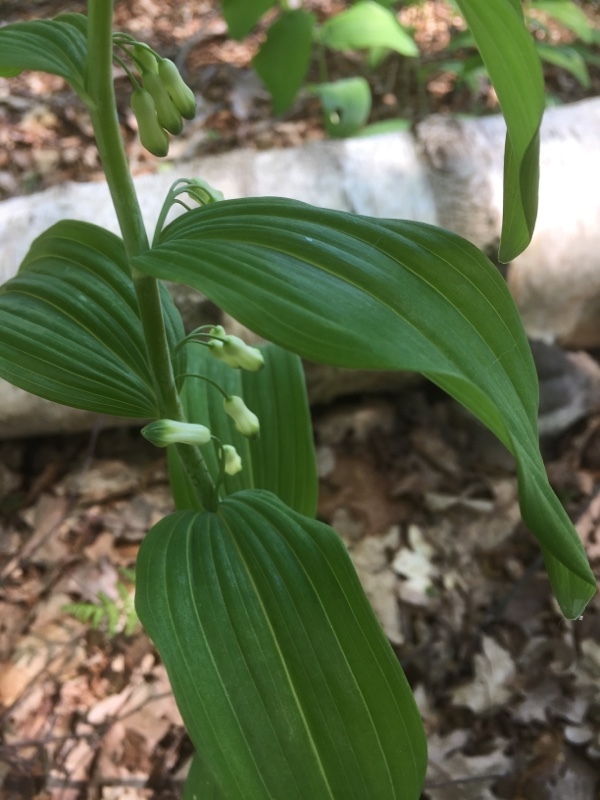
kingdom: Plantae
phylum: Tracheophyta
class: Liliopsida
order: Asparagales
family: Asparagaceae
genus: Polygonatum
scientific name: Polygonatum multiflorum
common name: Solomon's-seal
